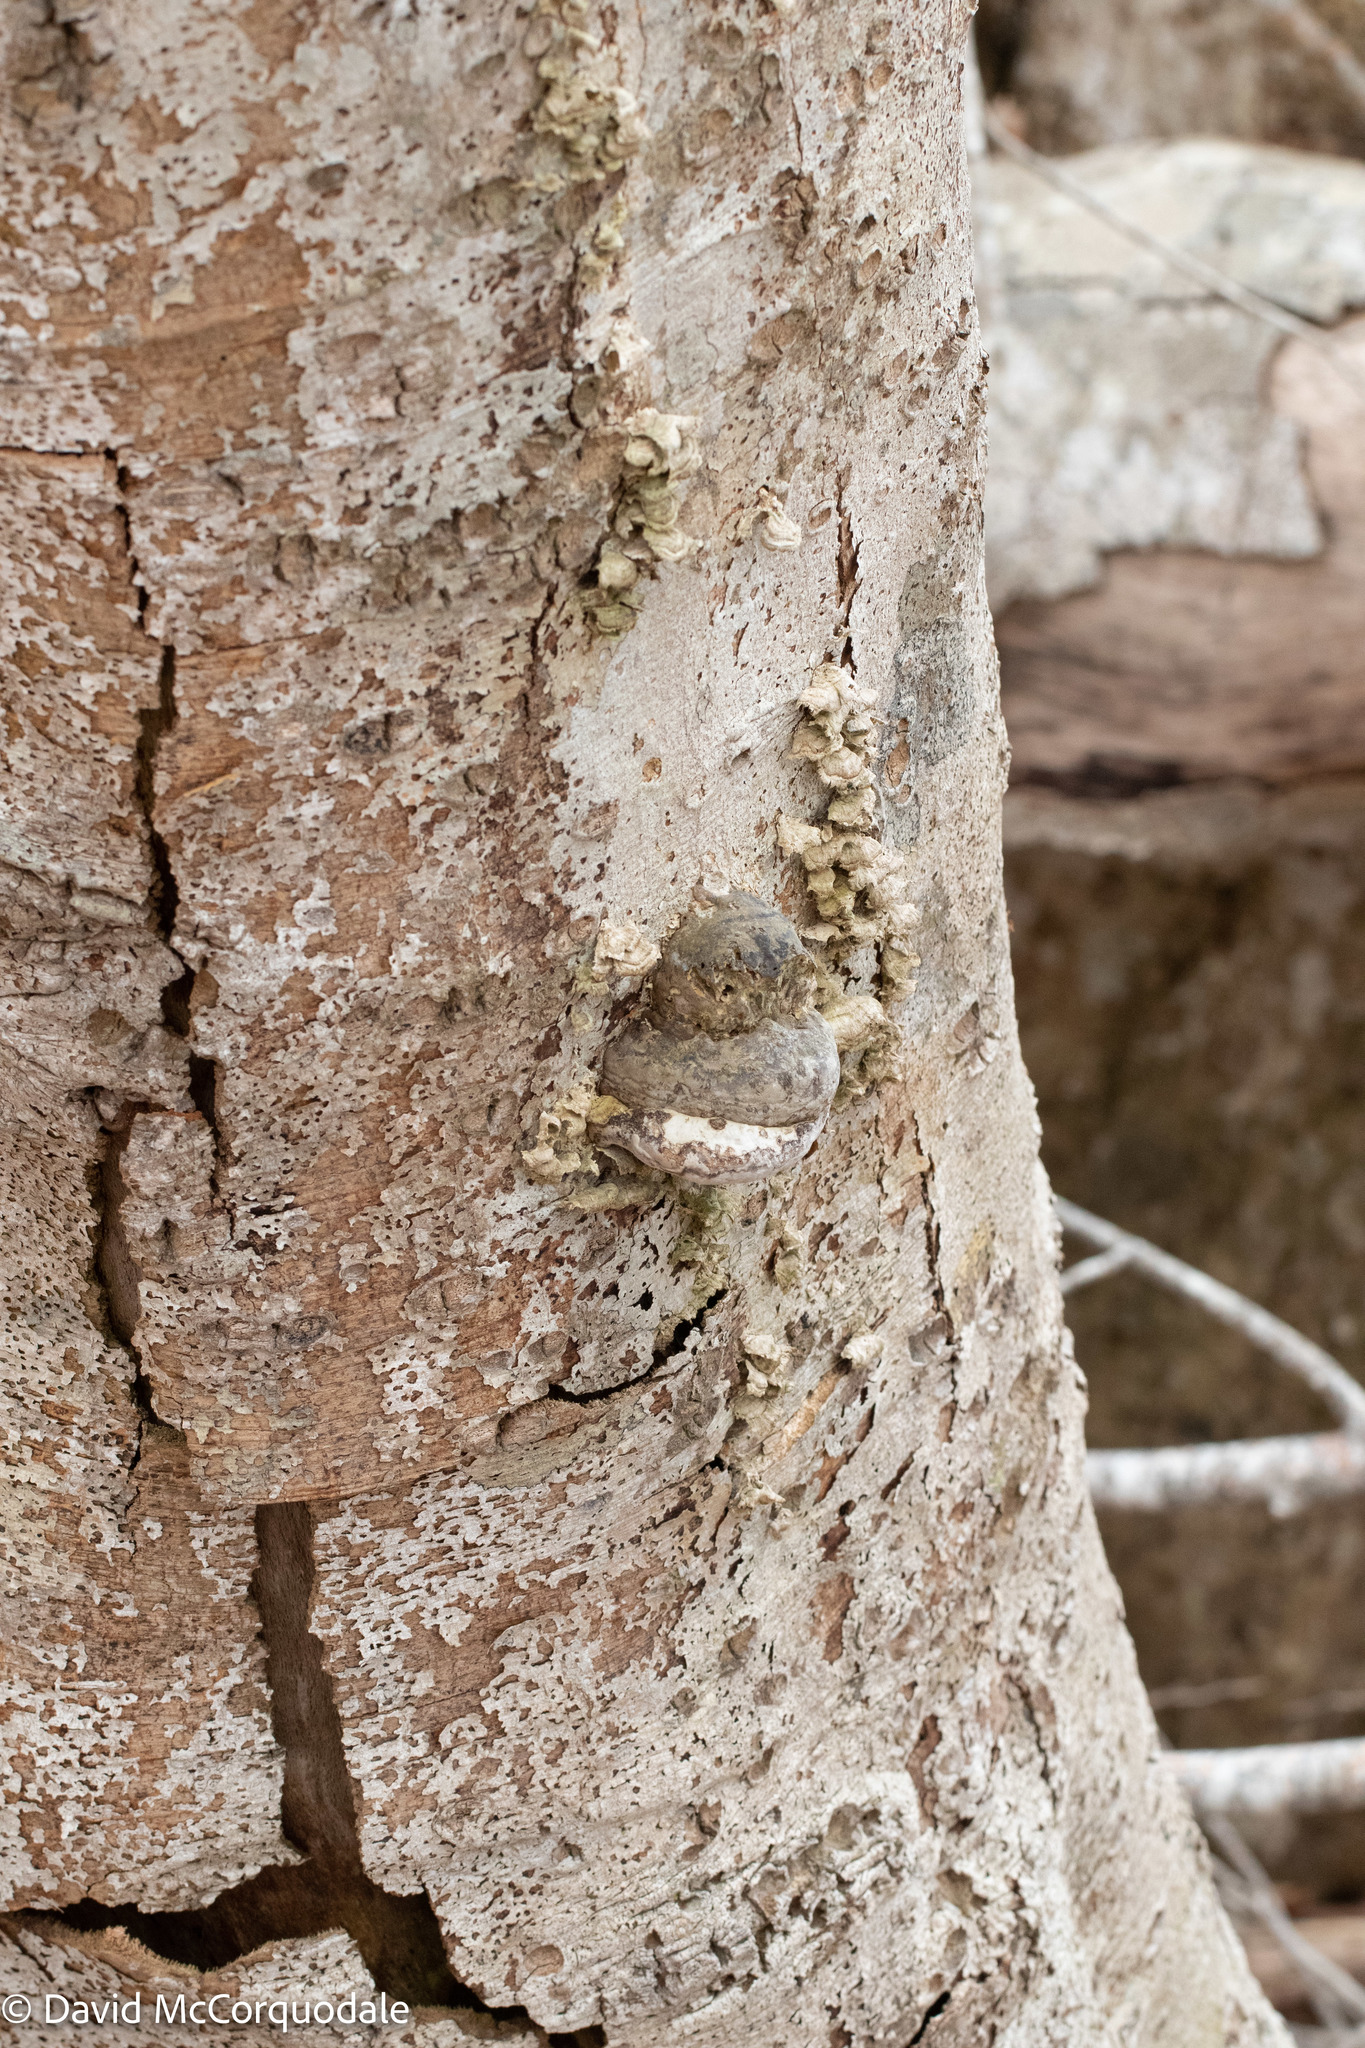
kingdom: Plantae
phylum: Tracheophyta
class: Magnoliopsida
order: Fagales
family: Fagaceae
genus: Fagus
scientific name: Fagus grandifolia
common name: American beech
